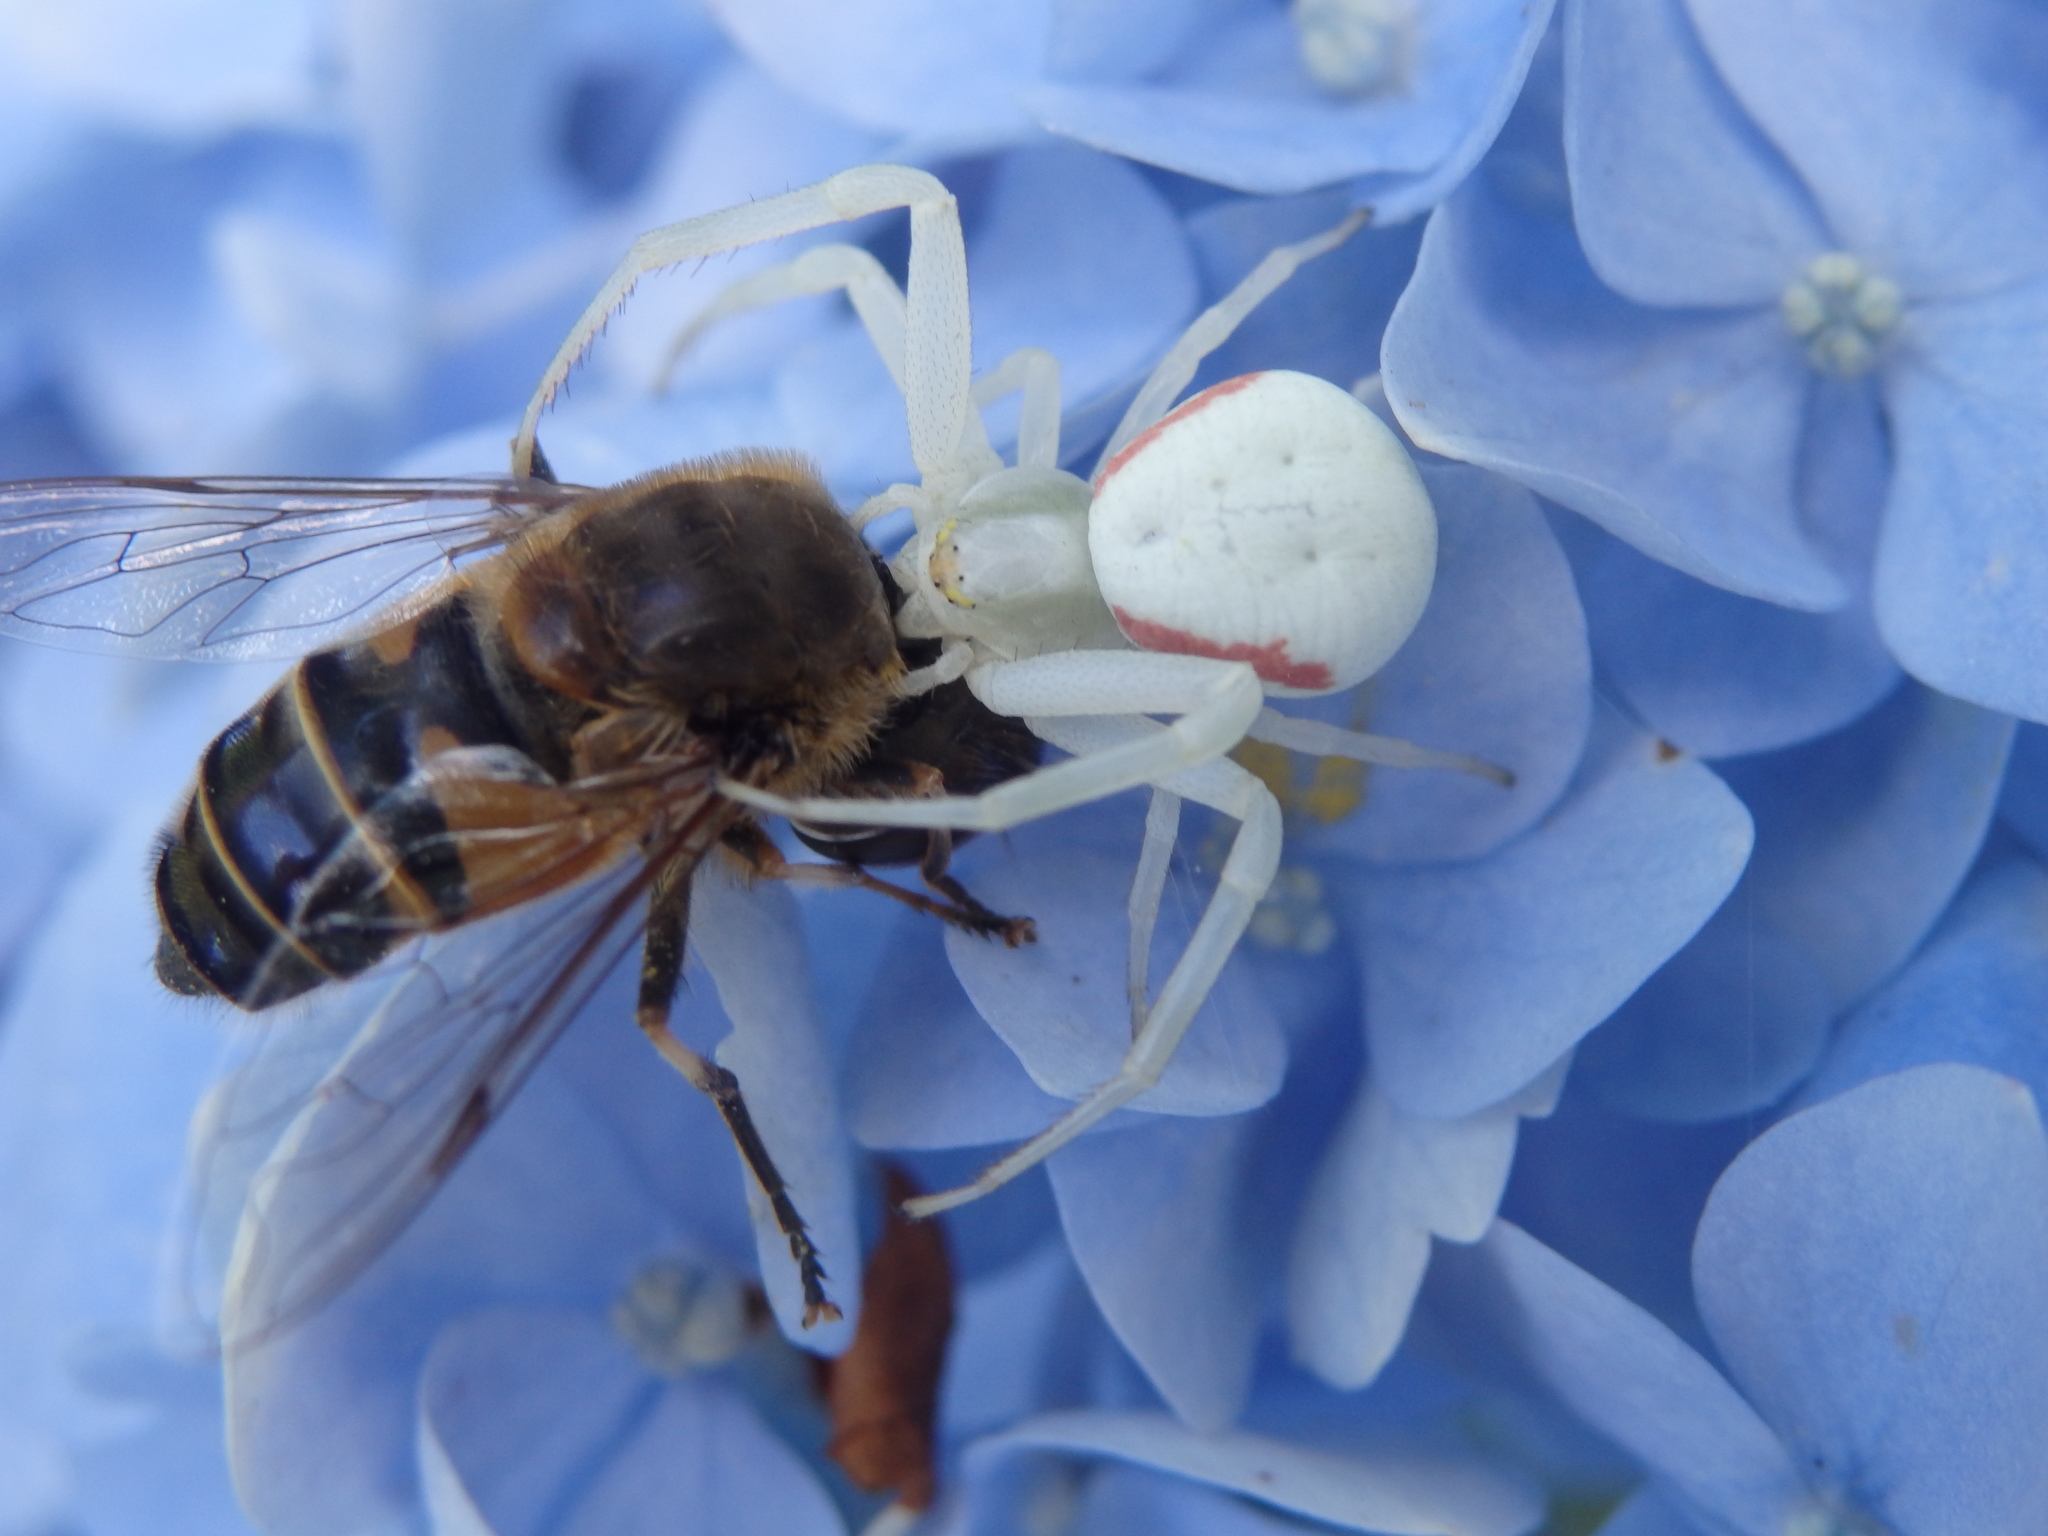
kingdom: Animalia
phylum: Arthropoda
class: Arachnida
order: Araneae
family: Thomisidae
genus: Misumena
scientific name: Misumena vatia
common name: Goldenrod crab spider
